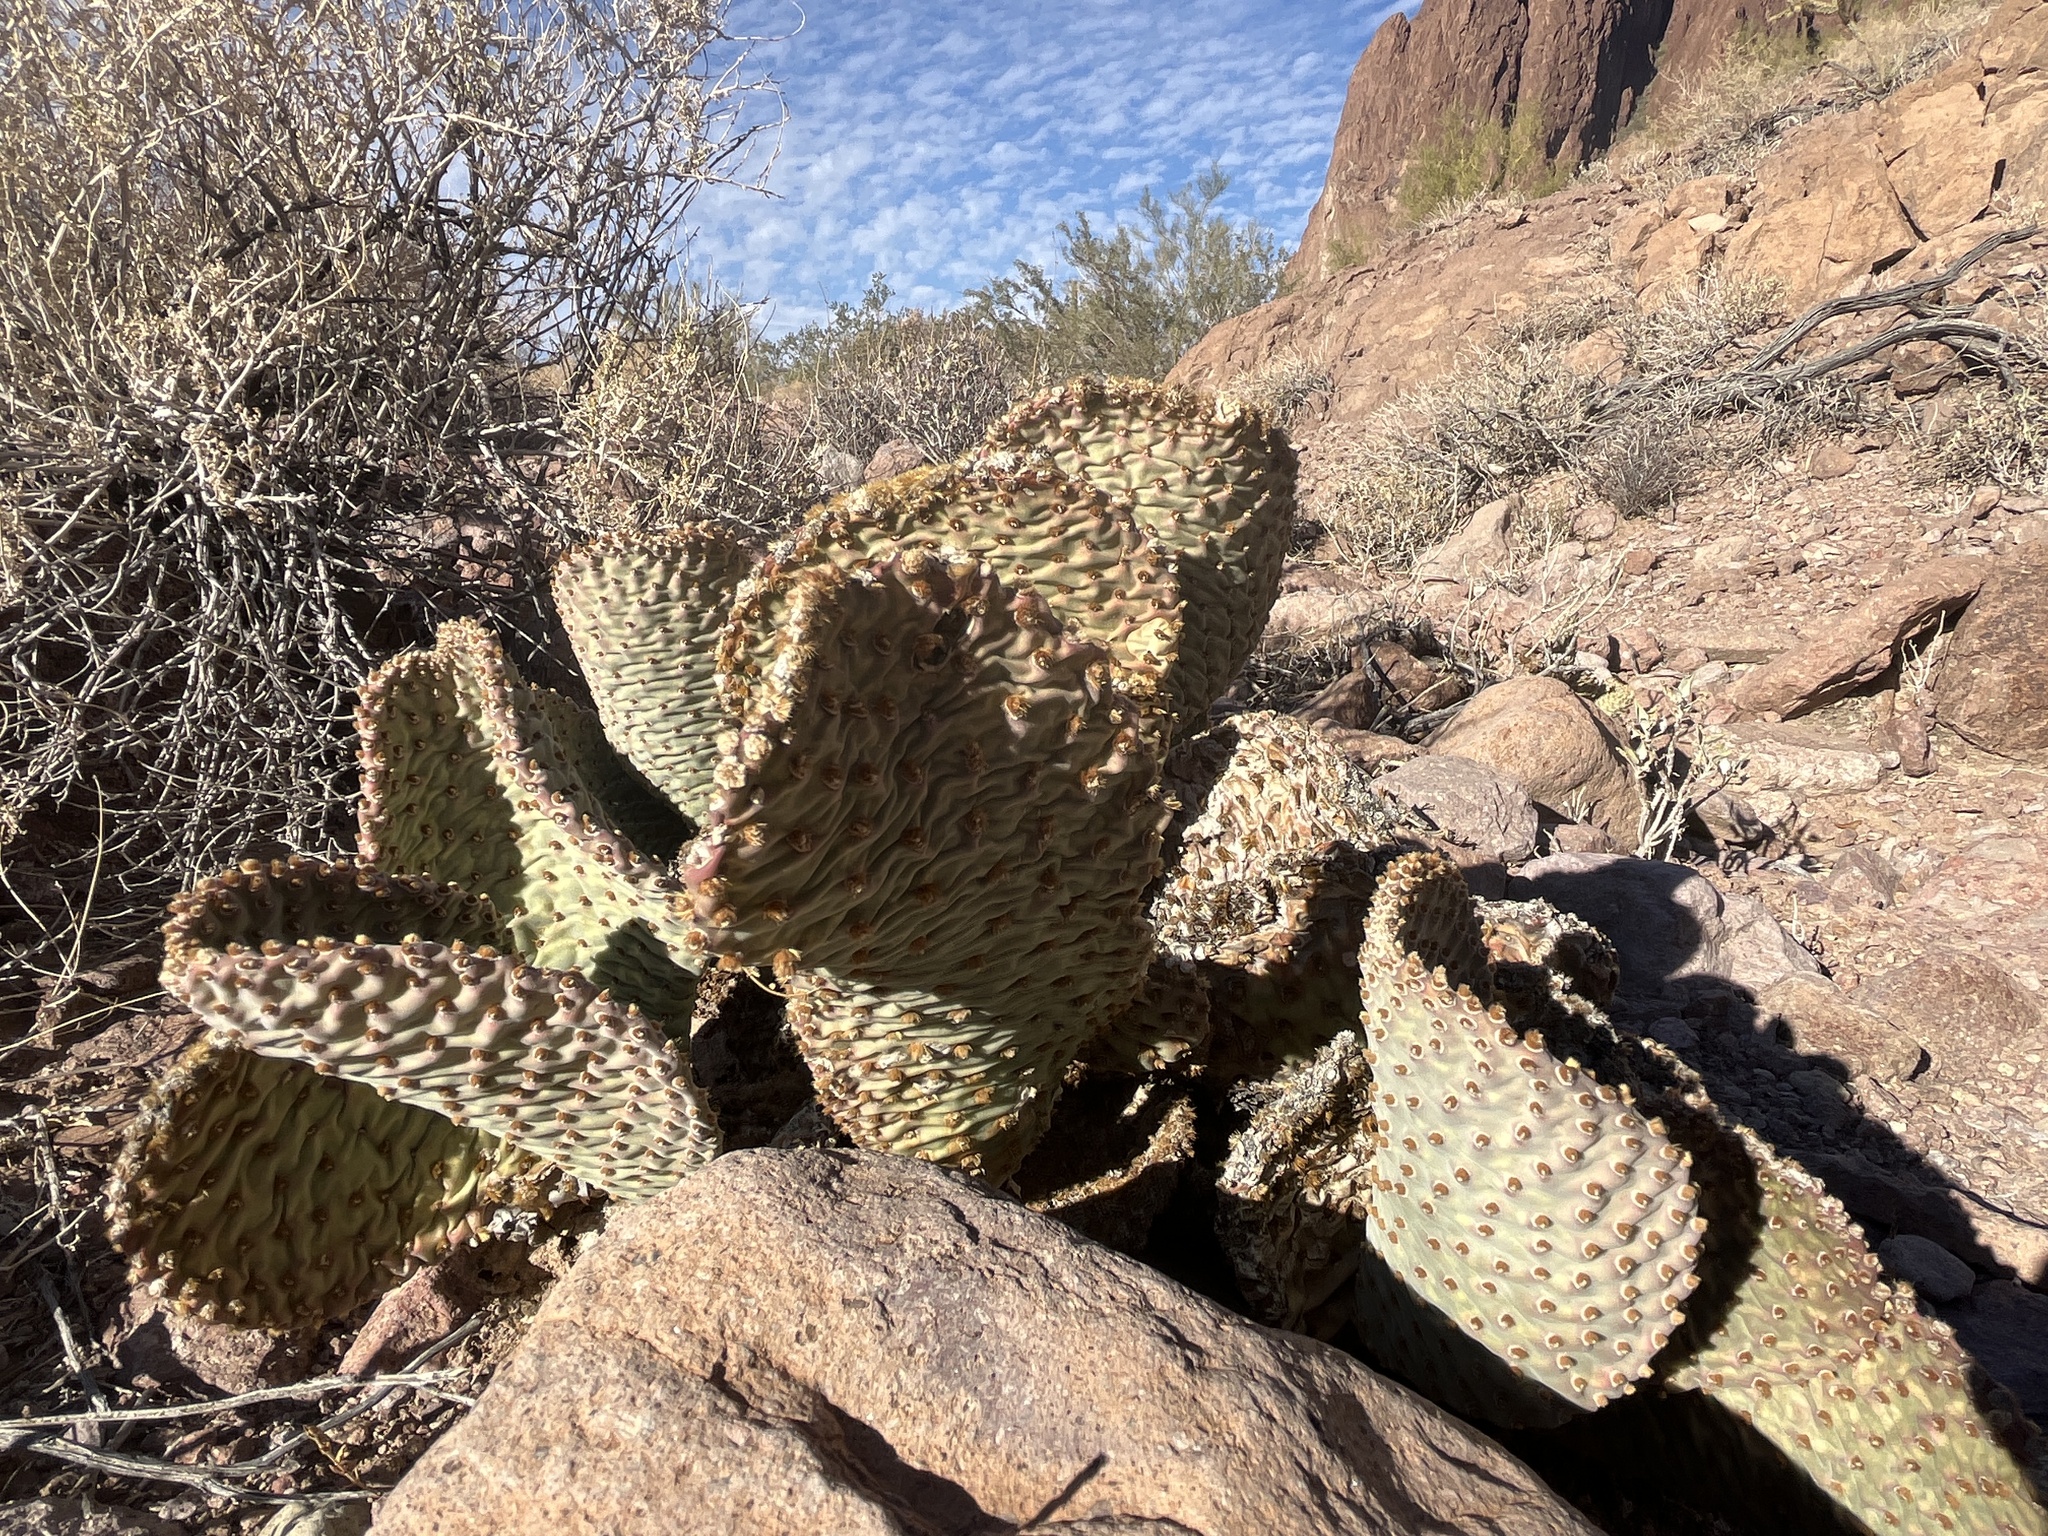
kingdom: Plantae
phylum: Tracheophyta
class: Magnoliopsida
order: Caryophyllales
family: Cactaceae
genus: Opuntia
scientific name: Opuntia basilaris
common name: Beavertail prickly-pear
